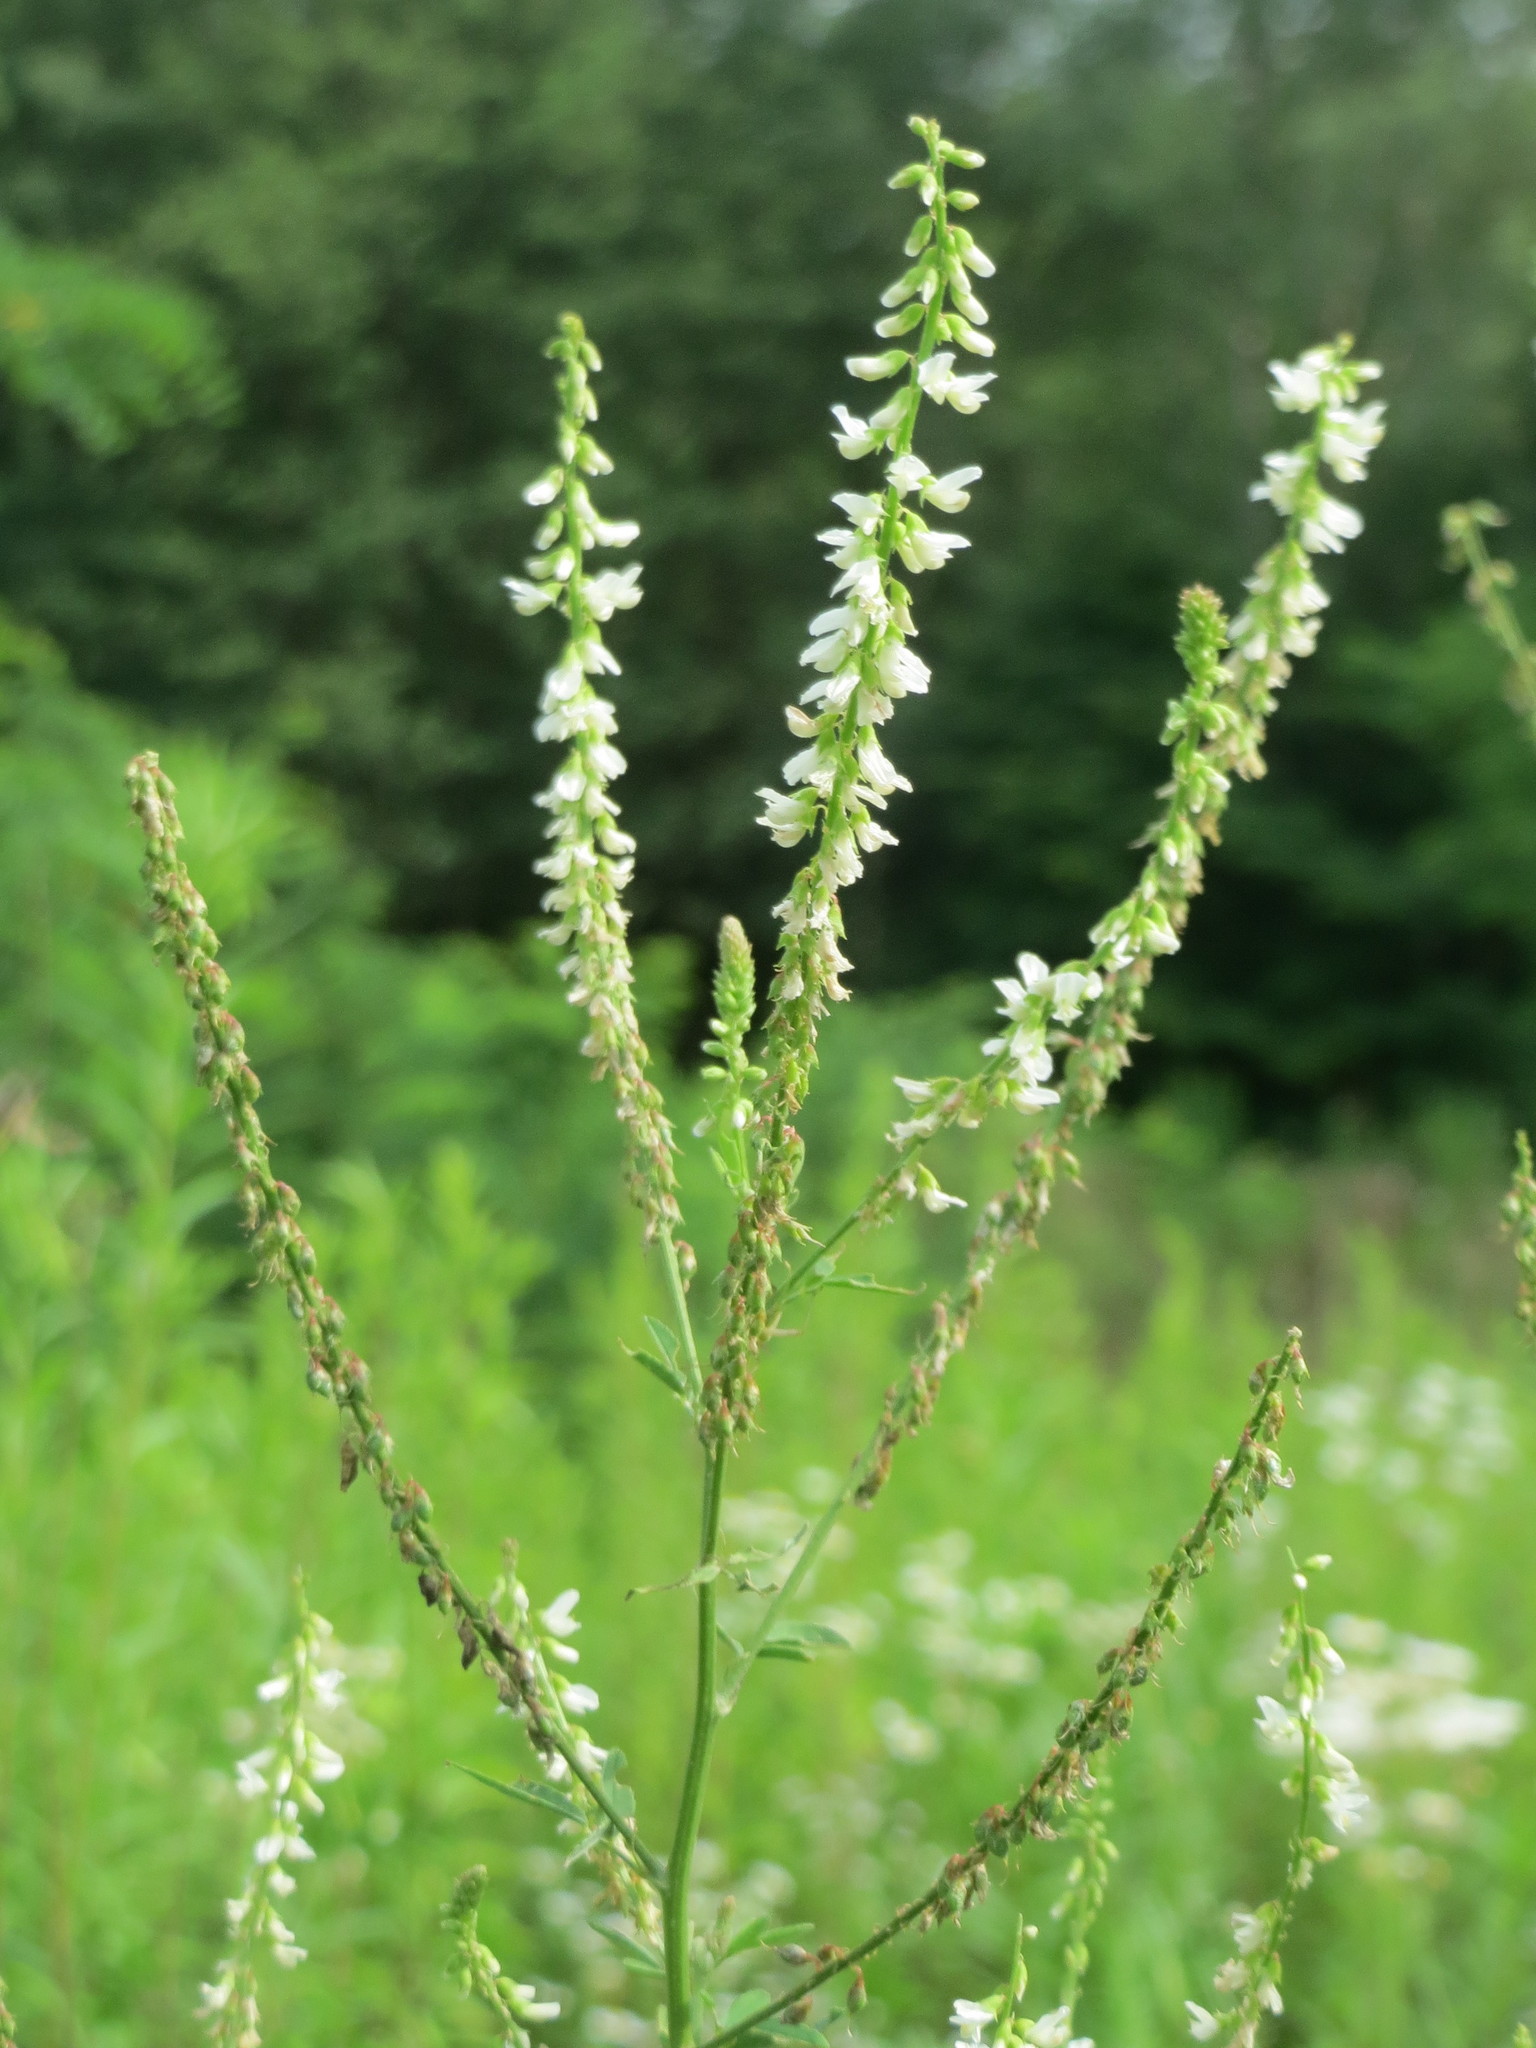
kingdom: Plantae
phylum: Tracheophyta
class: Magnoliopsida
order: Fabales
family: Fabaceae
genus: Melilotus
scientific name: Melilotus albus
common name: White melilot
